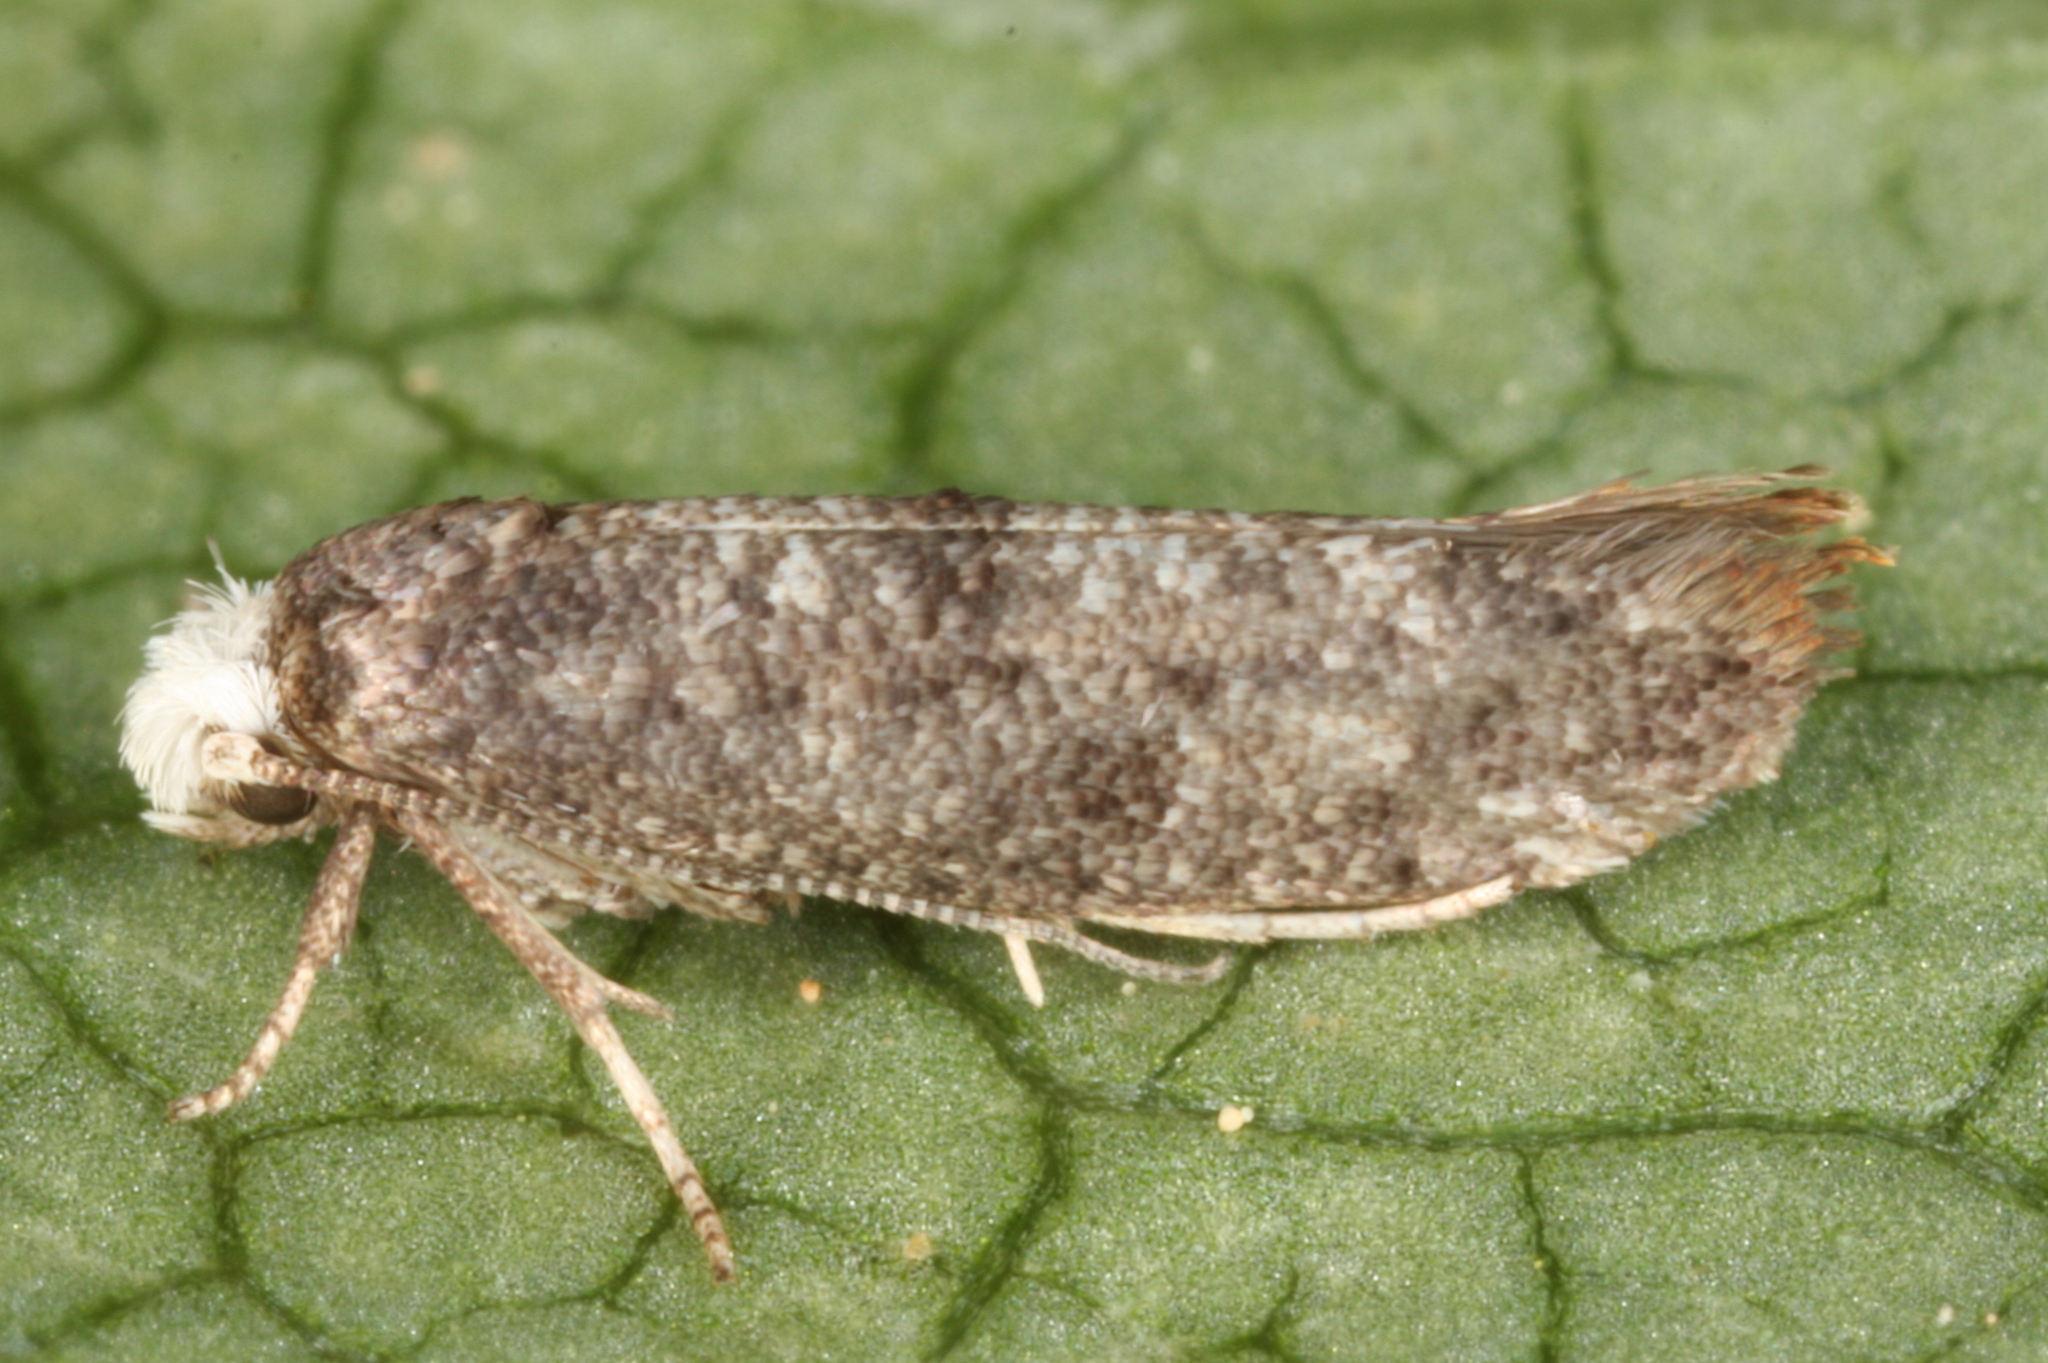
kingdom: Animalia
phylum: Arthropoda
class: Insecta
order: Lepidoptera
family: Yponomeutidae
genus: Swammerdamia
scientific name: Swammerdamia pyrella
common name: Little ermine moth
